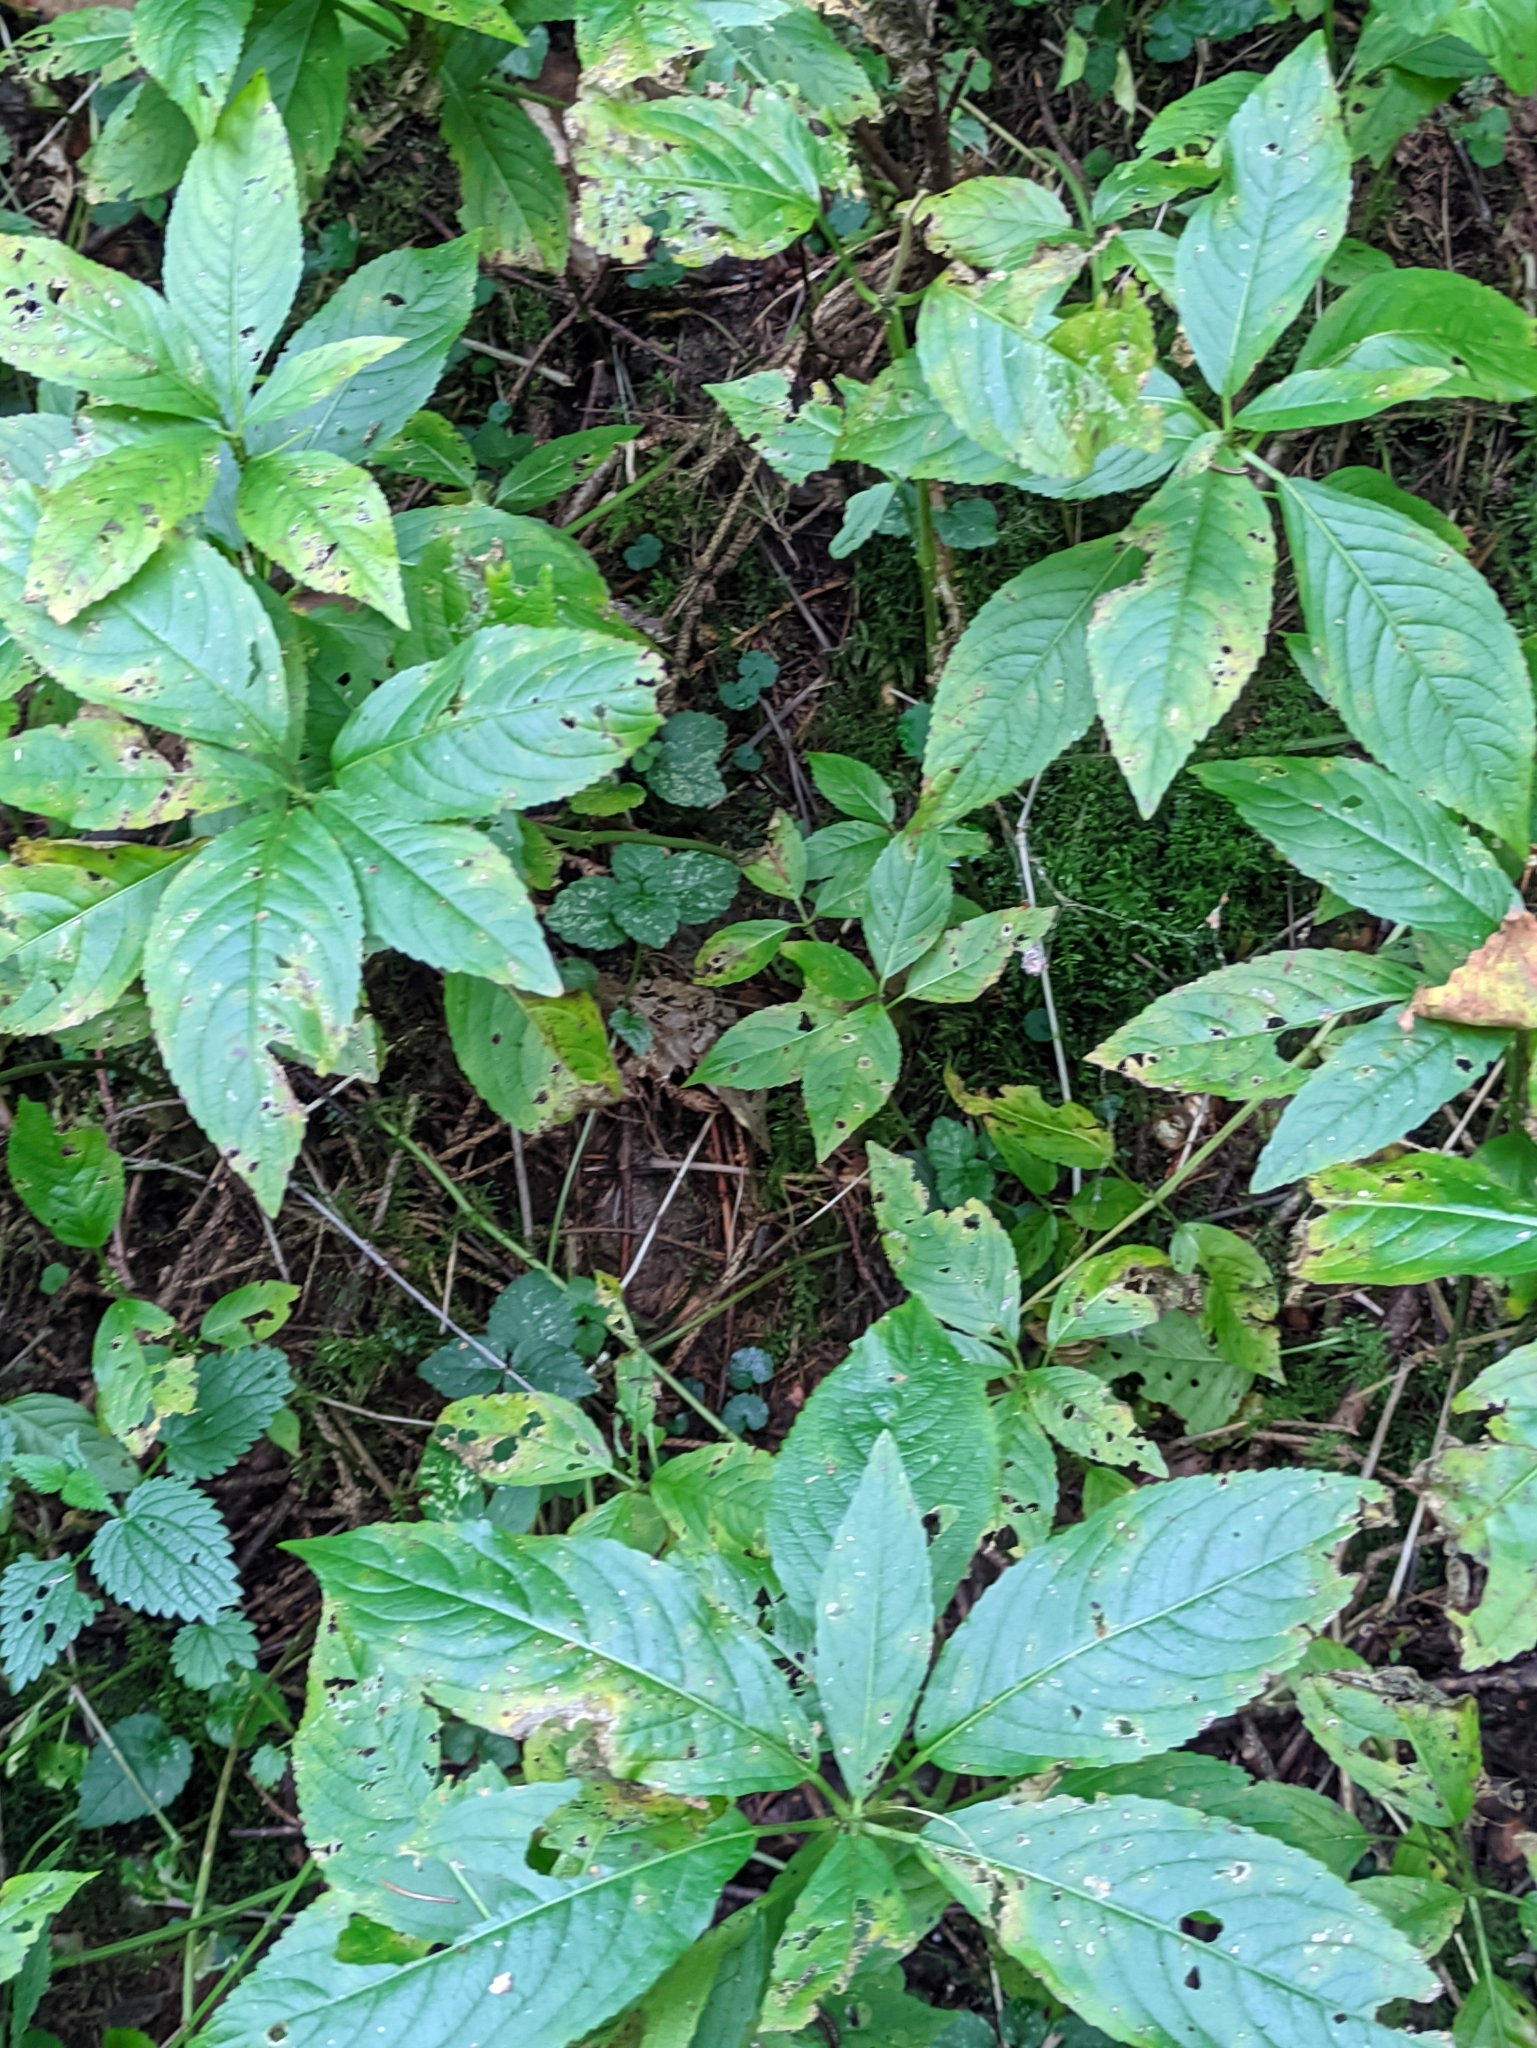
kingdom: Plantae
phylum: Tracheophyta
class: Magnoliopsida
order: Malpighiales
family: Euphorbiaceae
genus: Mercurialis
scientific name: Mercurialis perennis
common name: Dog mercury
